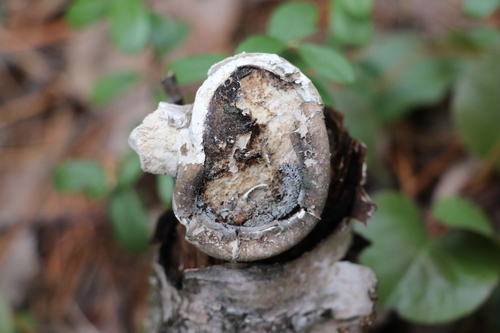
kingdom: Fungi
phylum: Basidiomycota
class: Agaricomycetes
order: Polyporales
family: Fomitopsidaceae
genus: Fomitopsis
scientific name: Fomitopsis betulina
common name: Birch polypore
